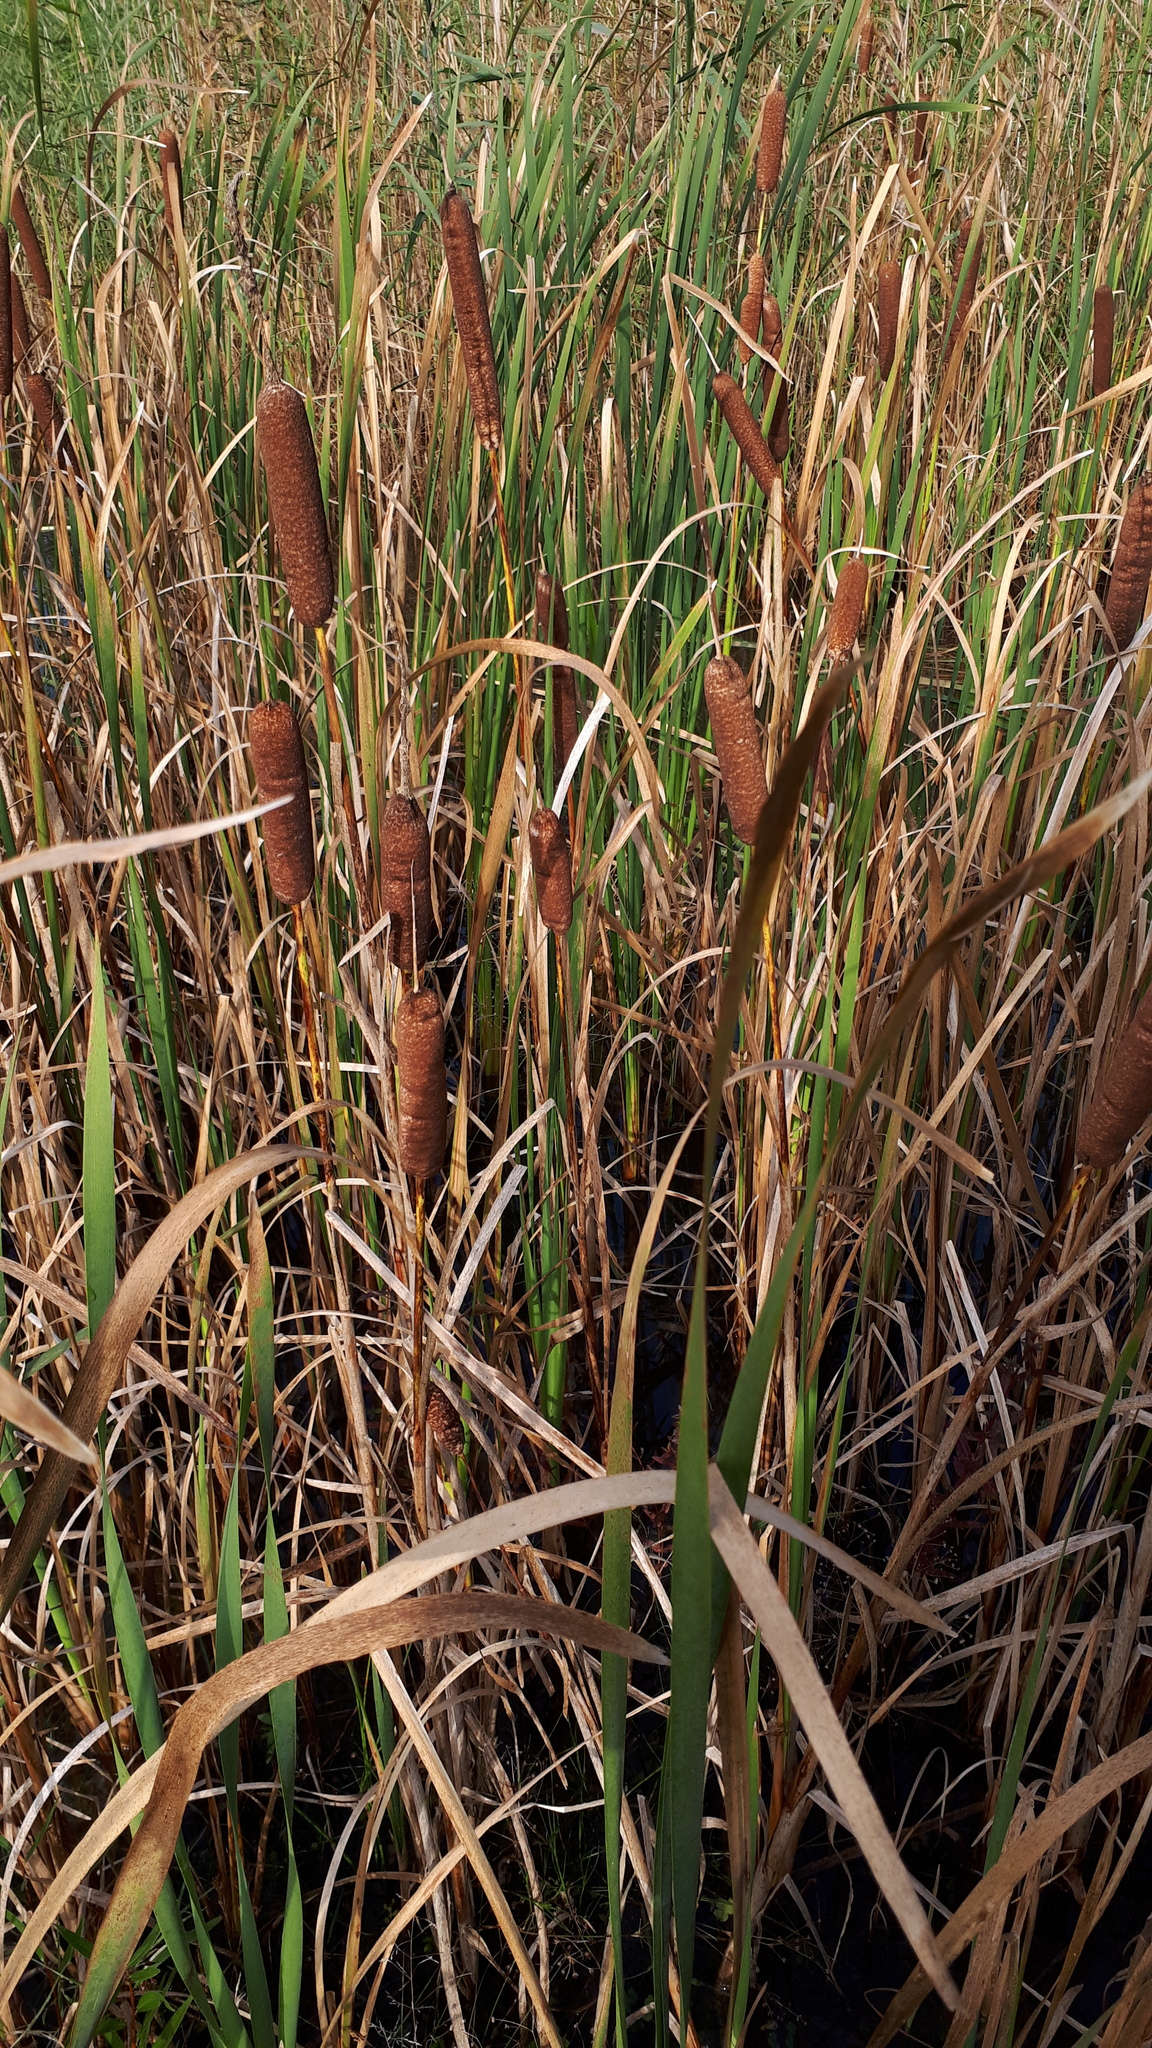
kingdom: Plantae
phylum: Tracheophyta
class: Liliopsida
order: Poales
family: Typhaceae
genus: Typha
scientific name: Typha latifolia
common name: Broadleaf cattail
